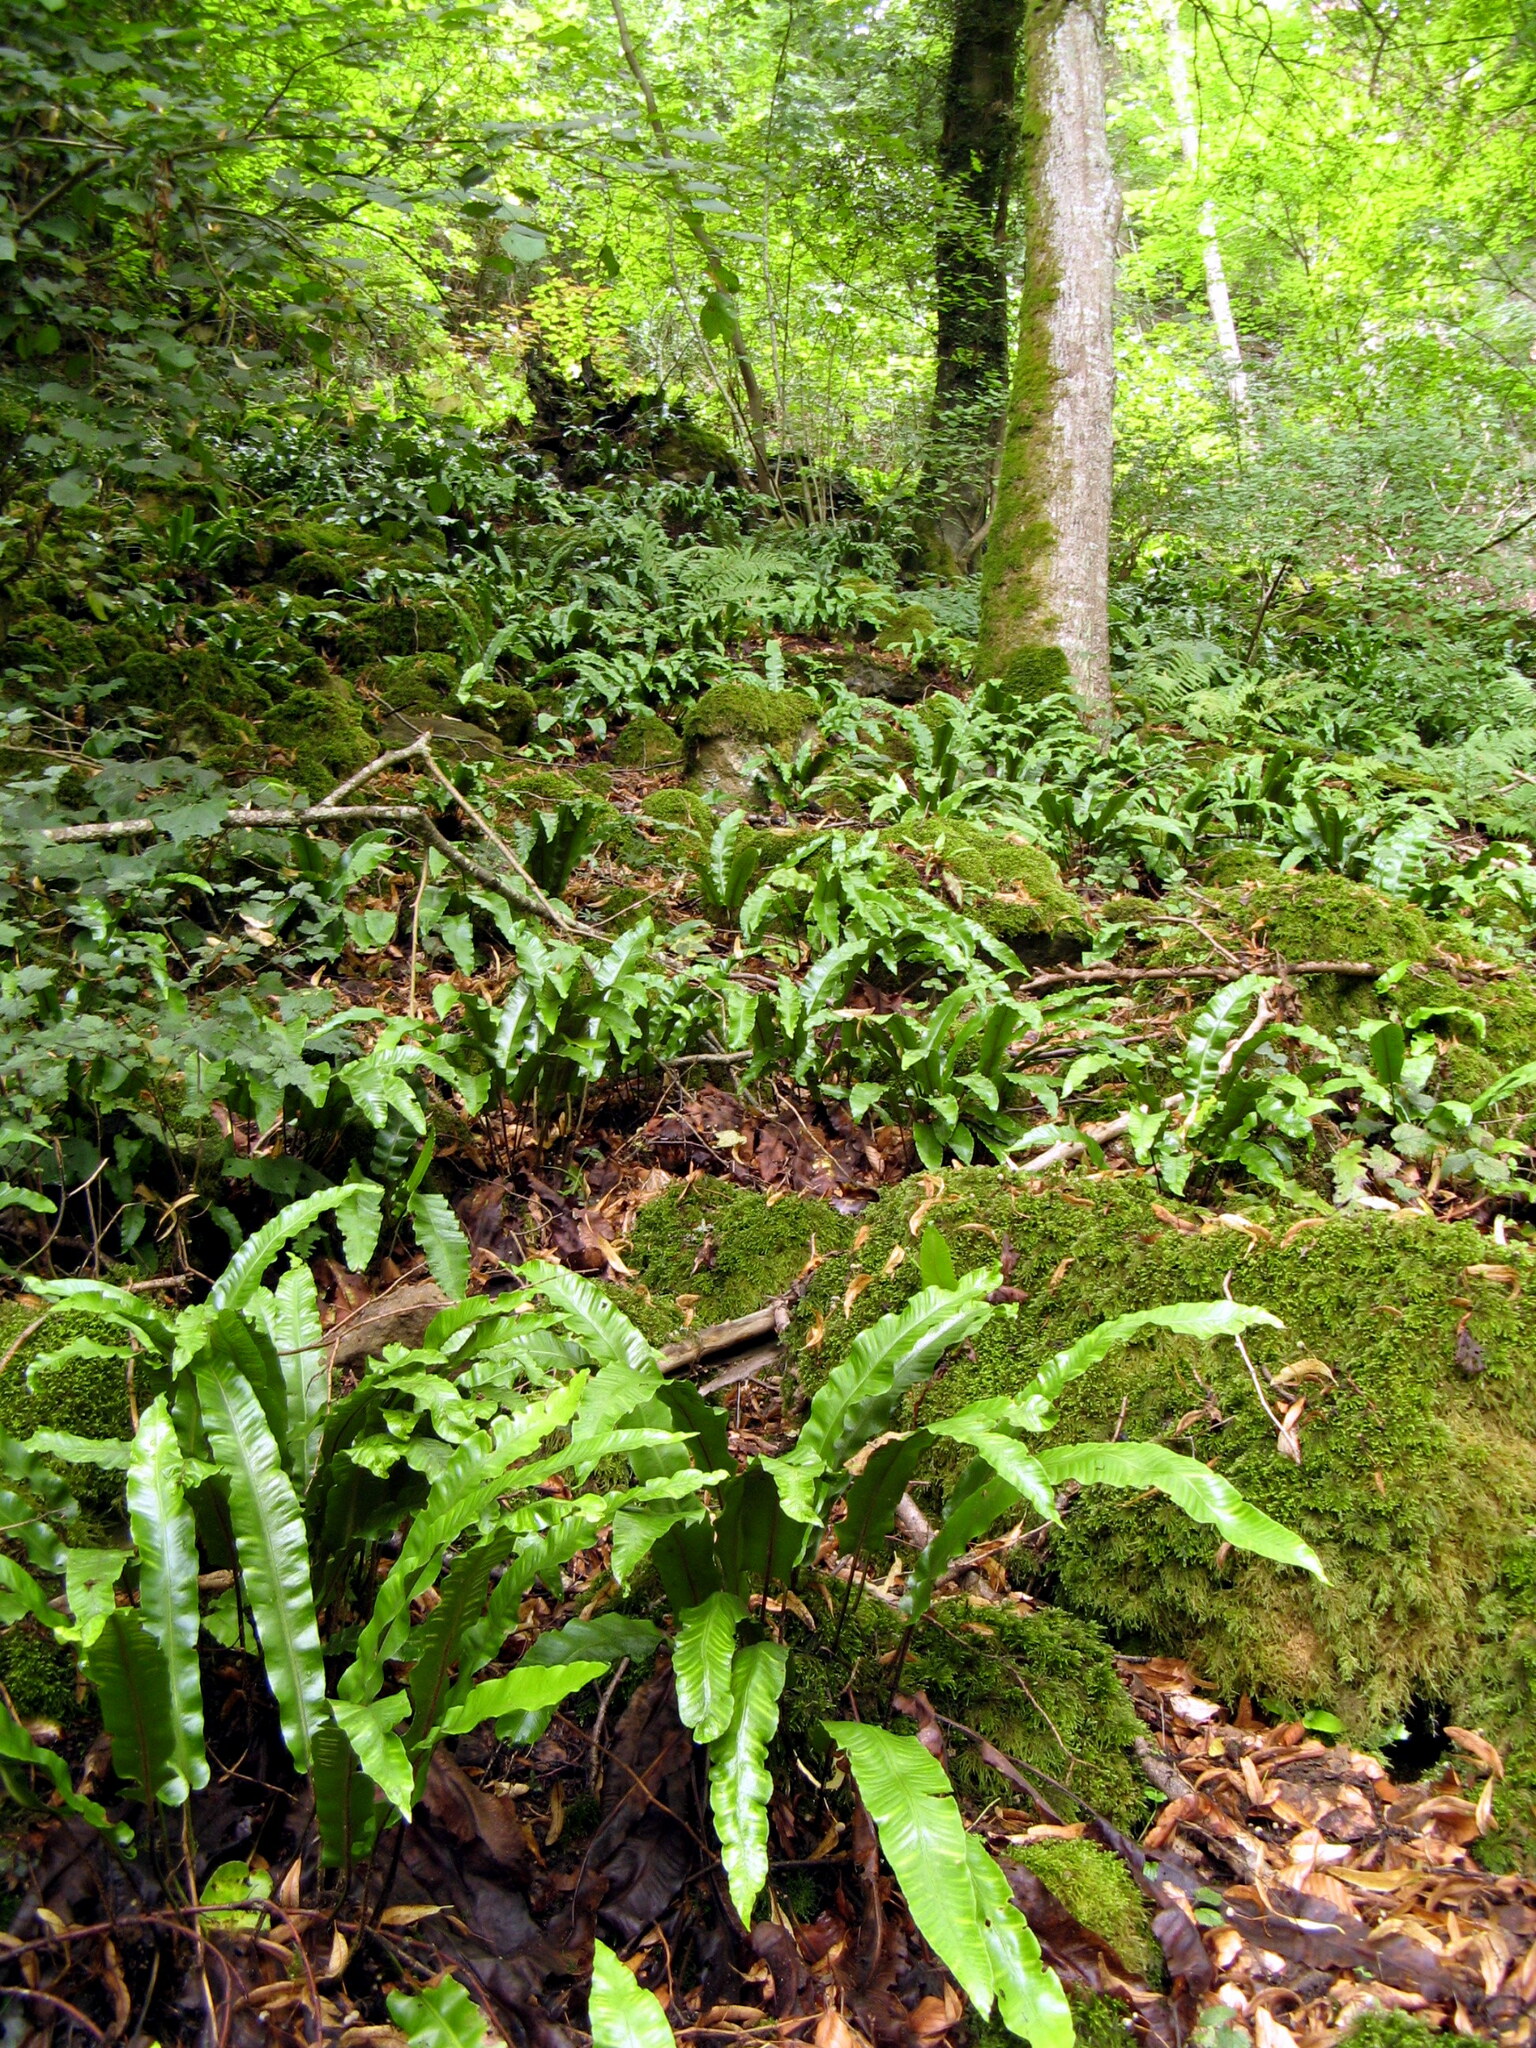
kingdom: Plantae
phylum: Tracheophyta
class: Polypodiopsida
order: Polypodiales
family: Aspleniaceae
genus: Asplenium
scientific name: Asplenium scolopendrium
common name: Hart's-tongue fern
